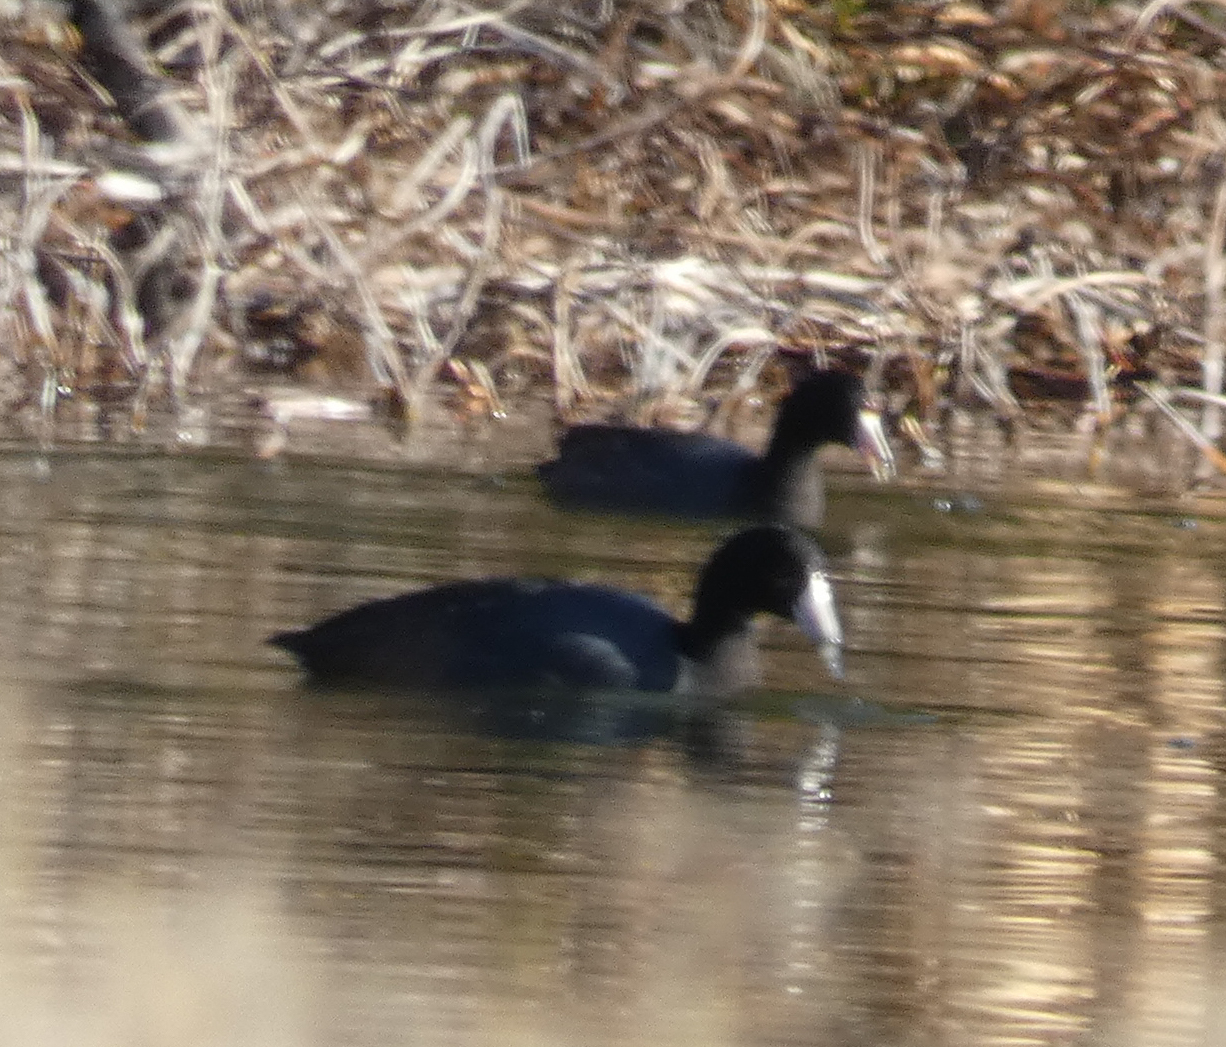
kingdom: Animalia
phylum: Chordata
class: Aves
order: Gruiformes
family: Rallidae
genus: Fulica
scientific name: Fulica americana
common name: American coot
